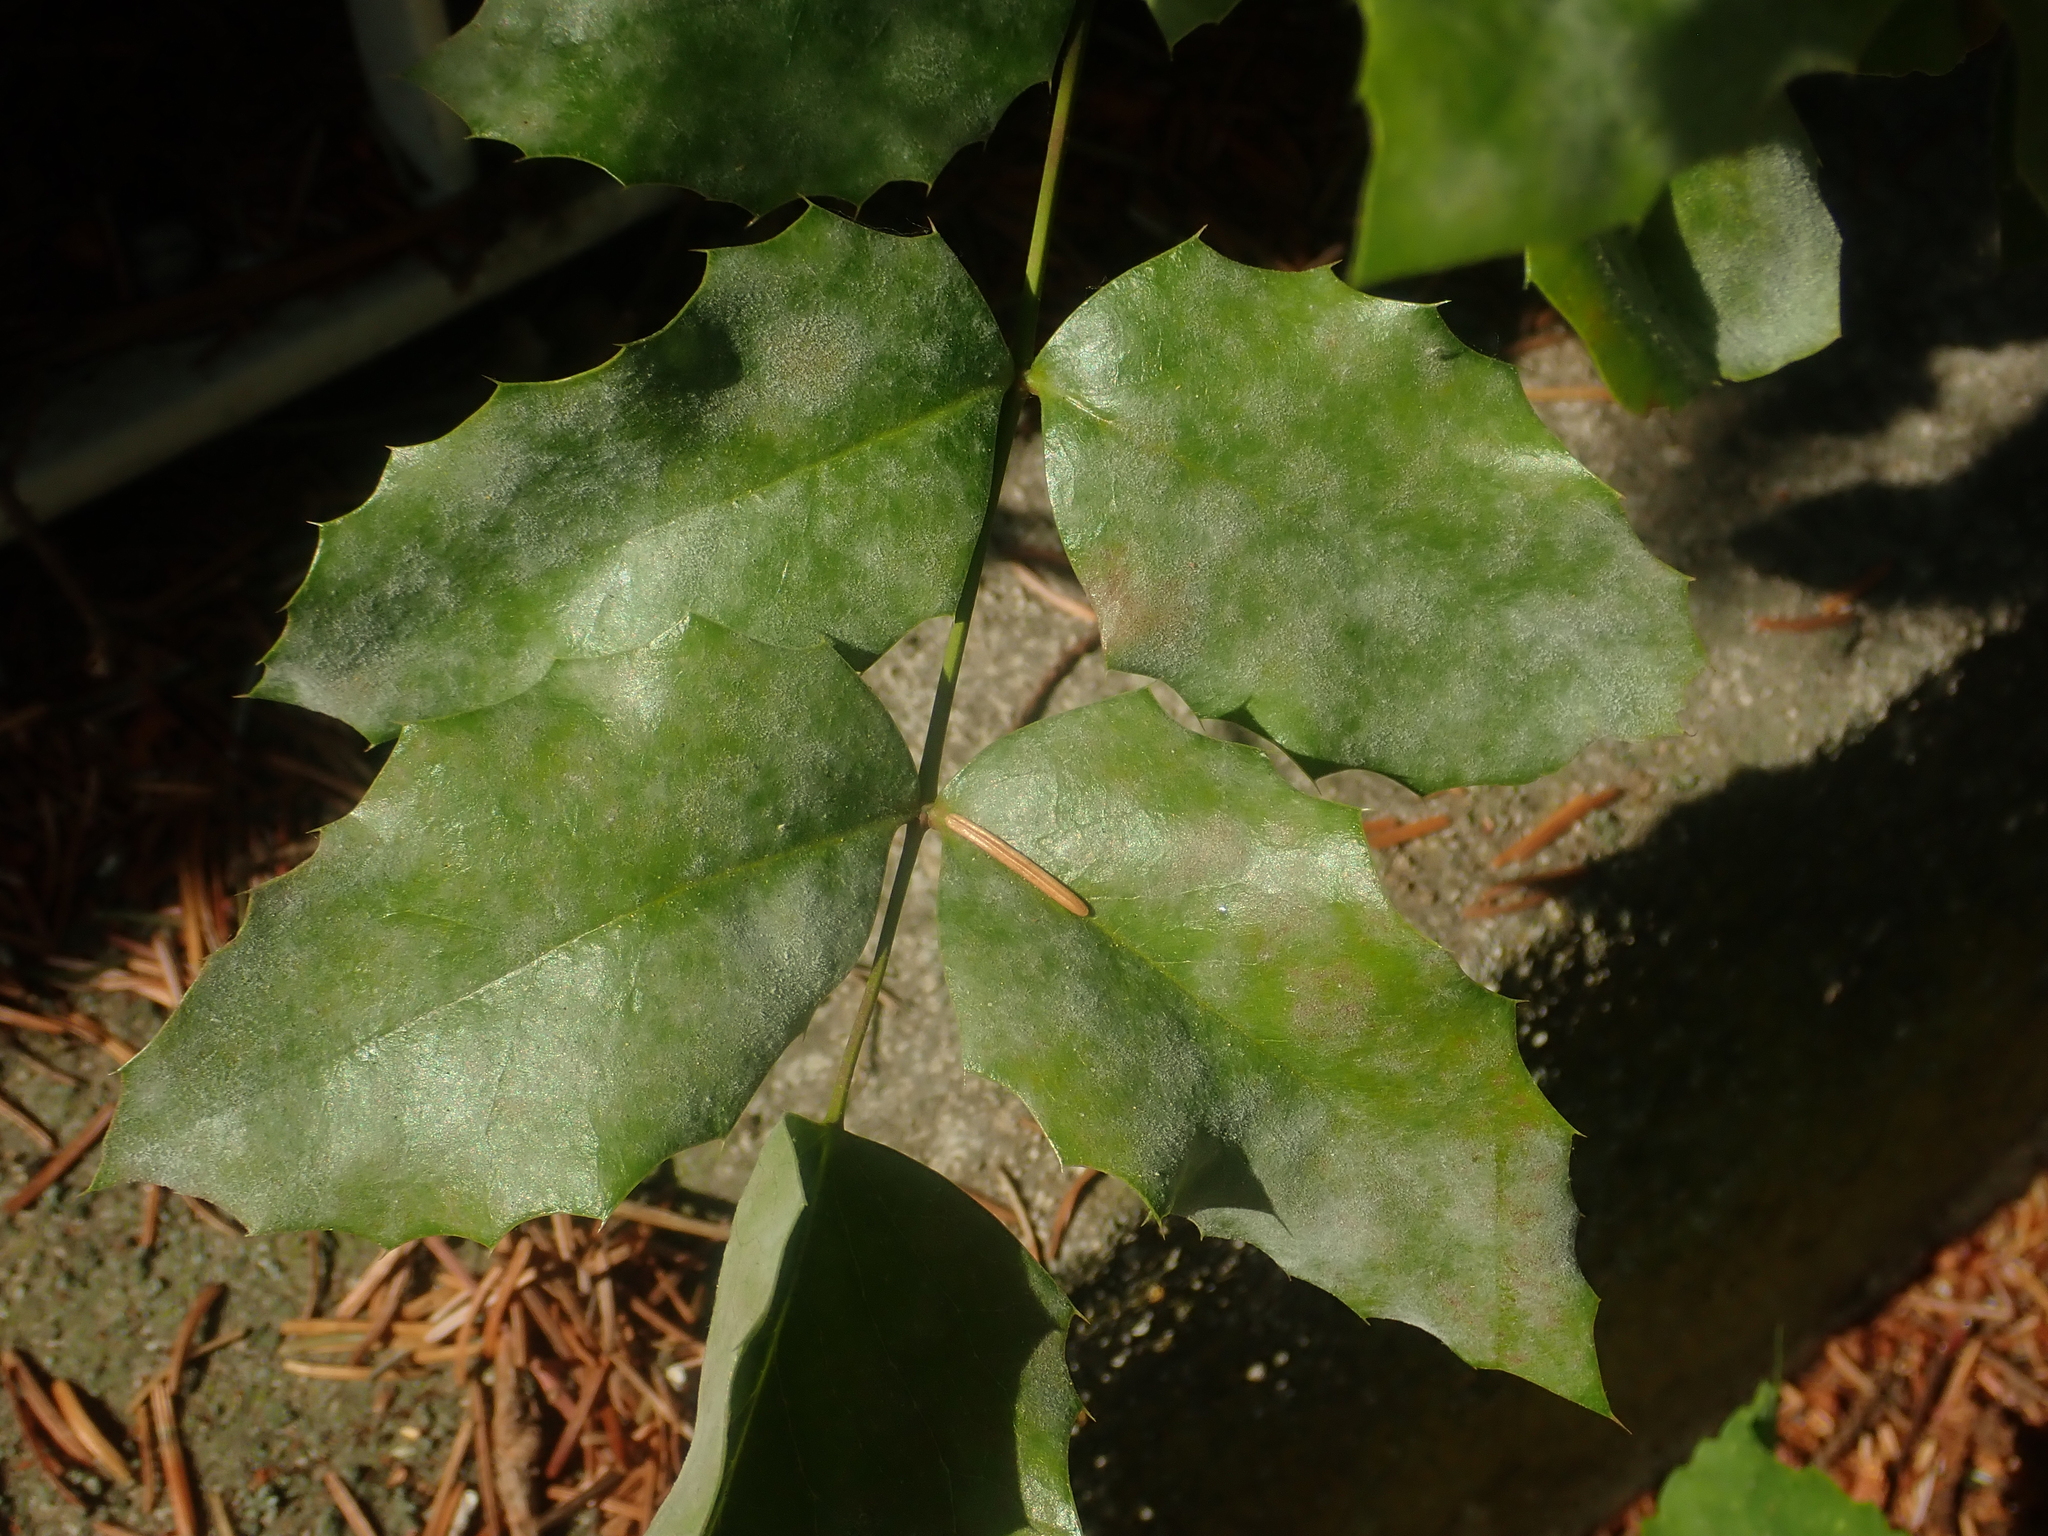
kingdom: Fungi
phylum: Ascomycota
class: Leotiomycetes
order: Helotiales
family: Erysiphaceae
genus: Erysiphe
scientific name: Erysiphe berberidis
